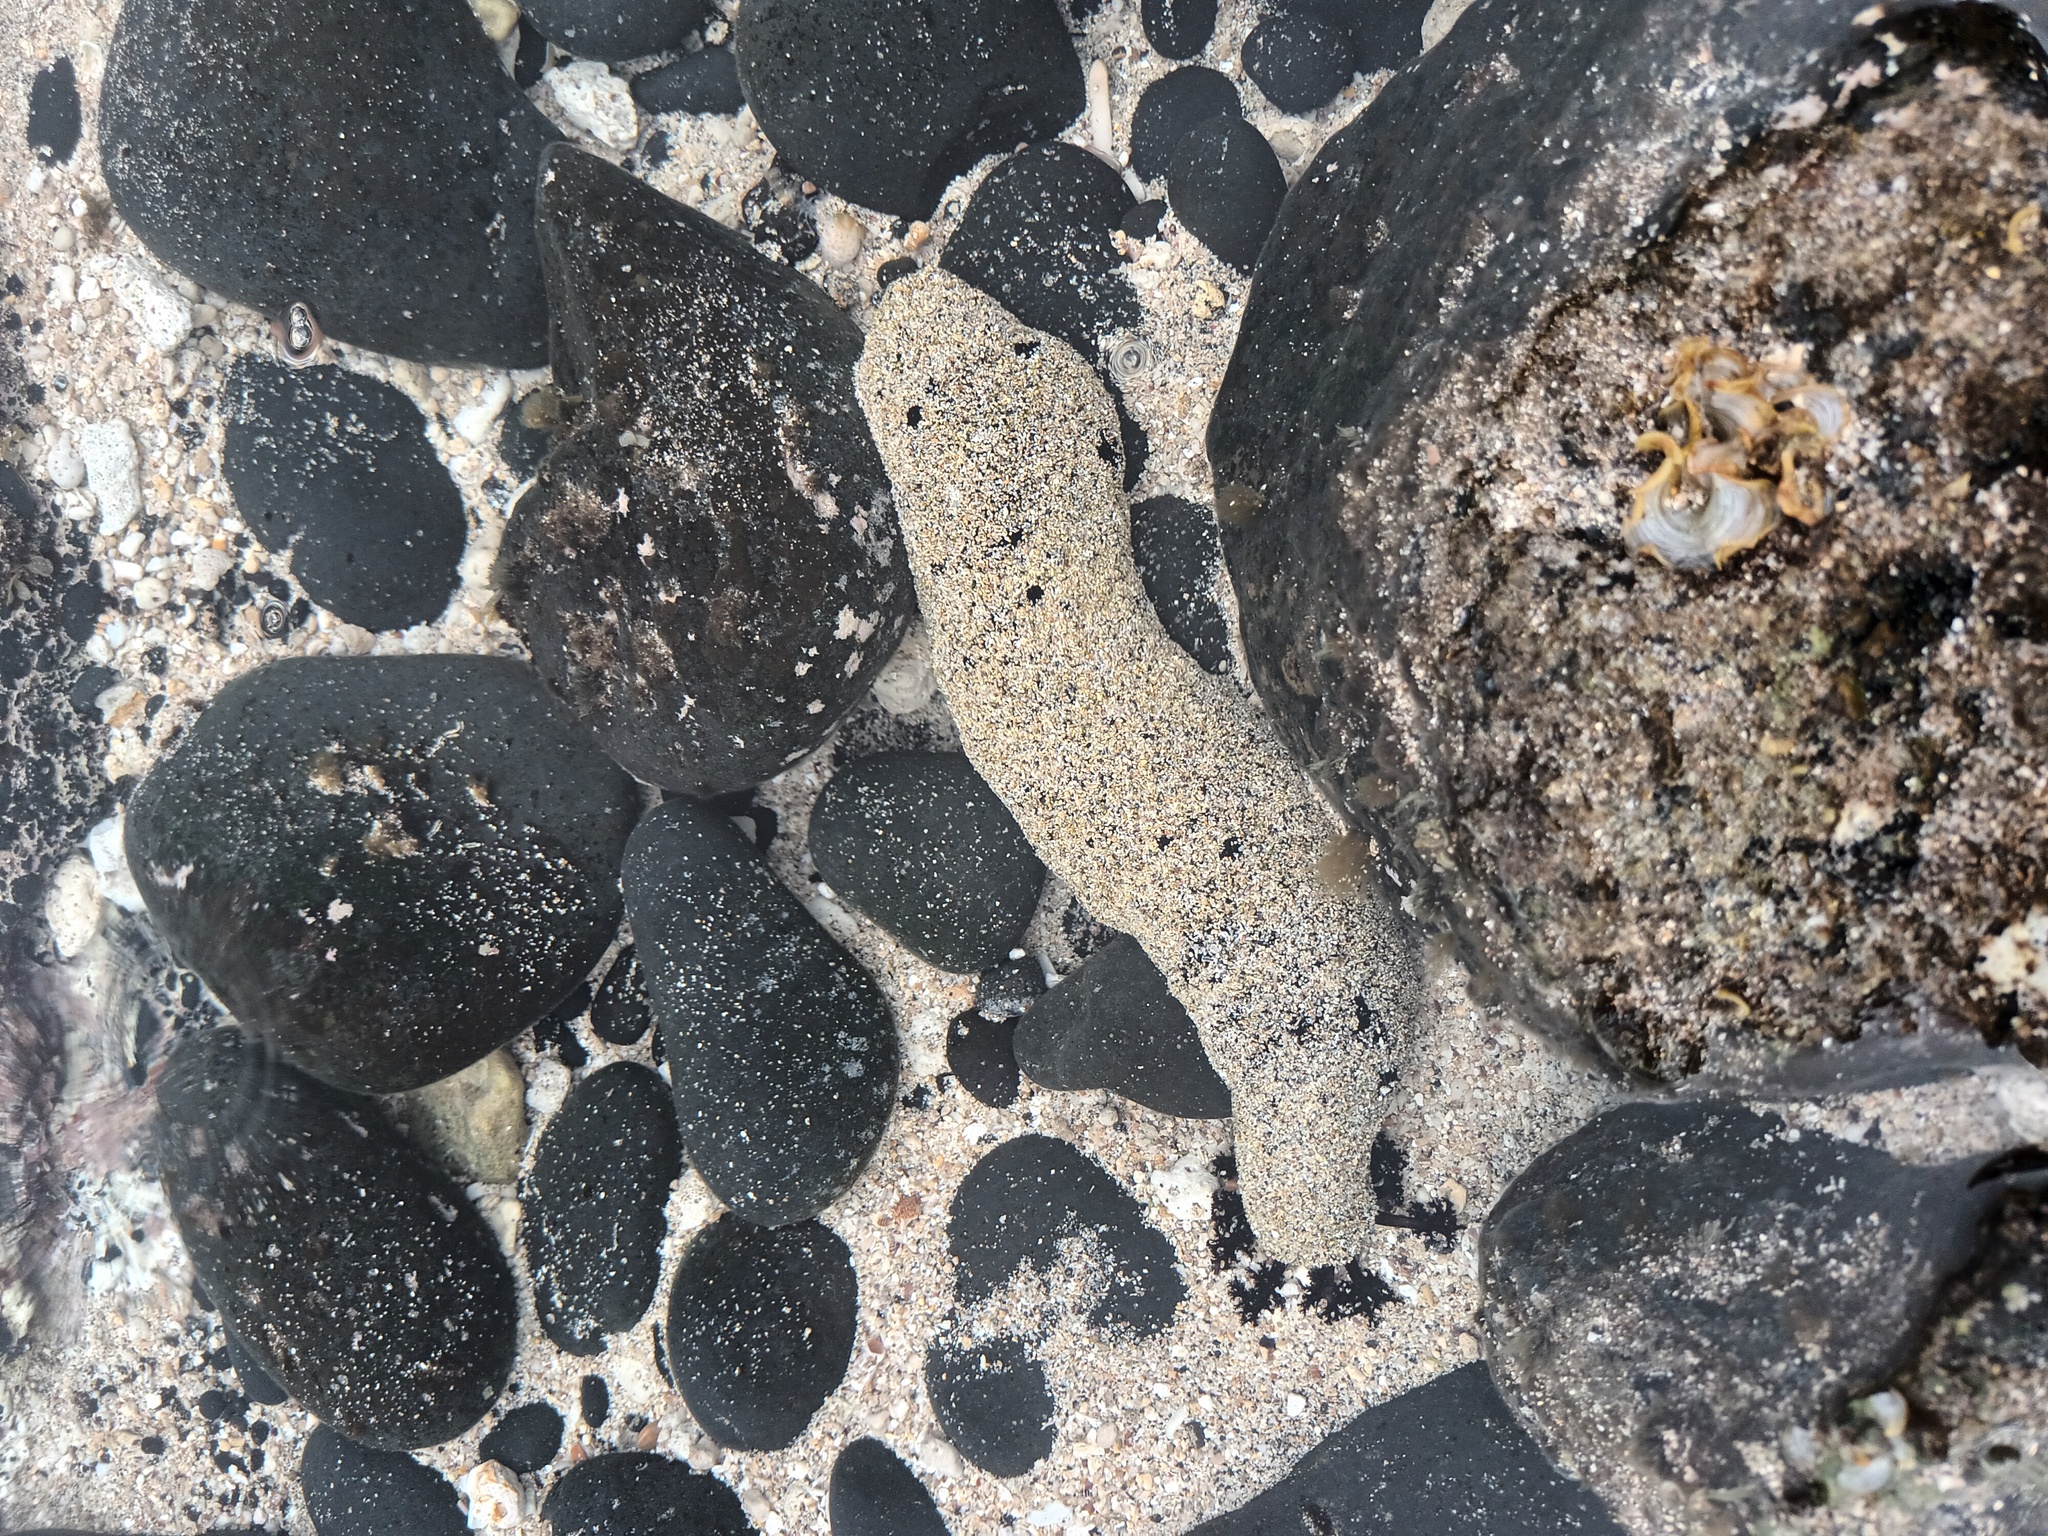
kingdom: Animalia
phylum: Echinodermata
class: Holothuroidea
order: Holothuriida
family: Holothuriidae
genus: Holothuria
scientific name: Holothuria atra
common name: Lollyfish
